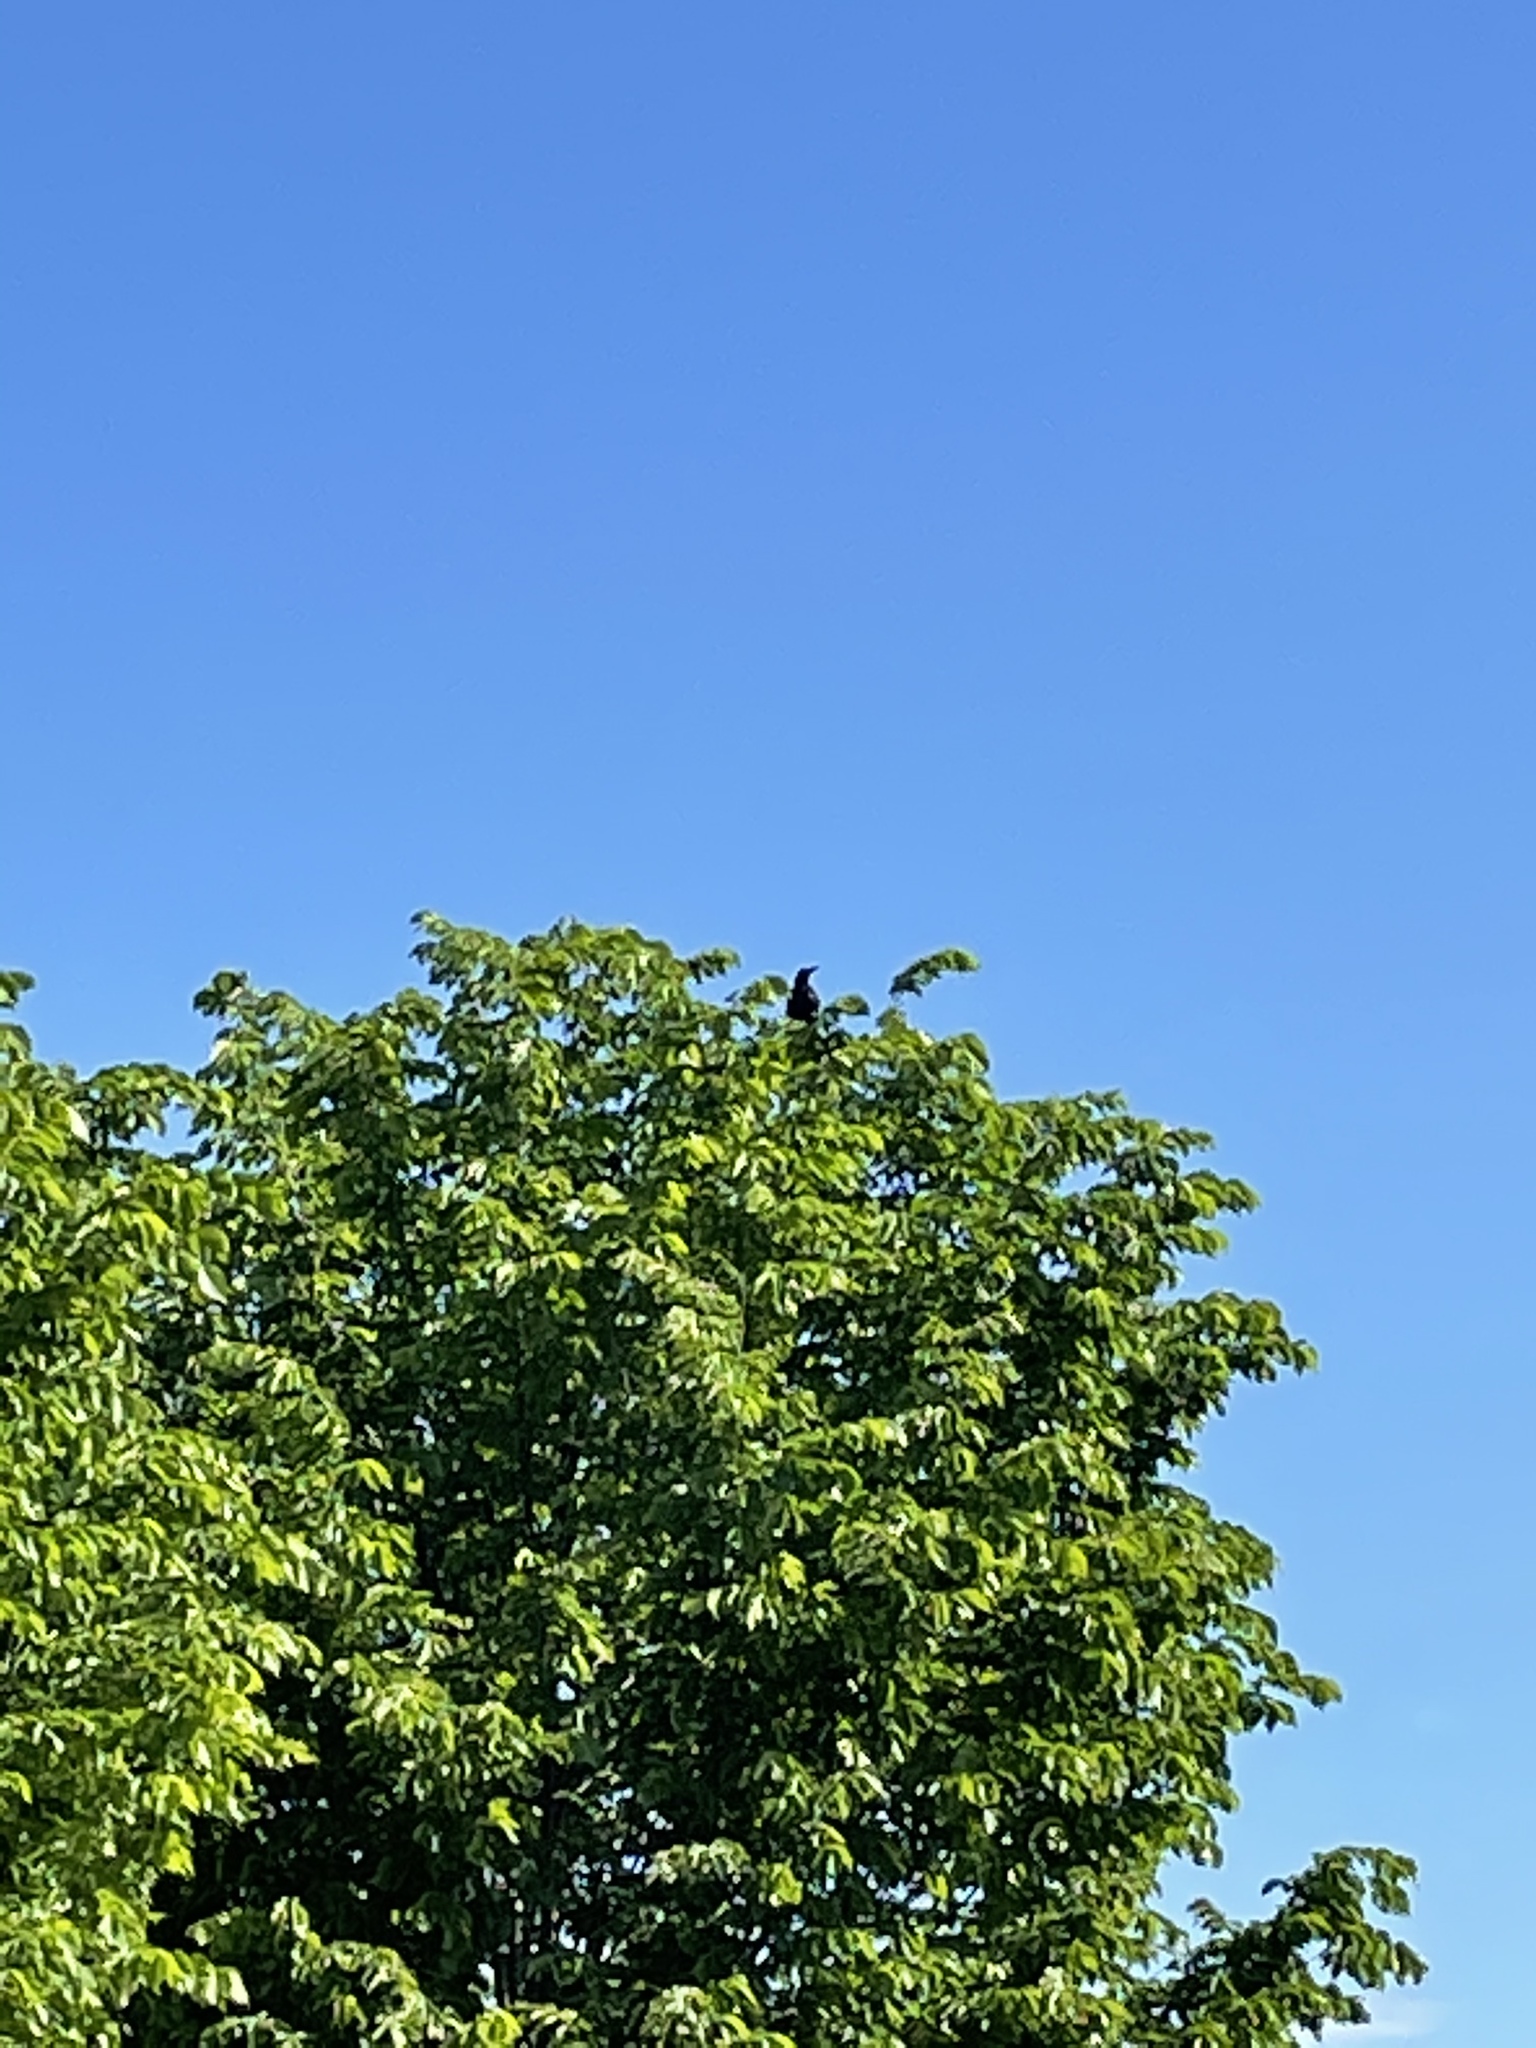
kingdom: Animalia
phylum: Chordata
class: Aves
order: Passeriformes
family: Icteridae
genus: Quiscalus
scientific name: Quiscalus mexicanus
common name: Great-tailed grackle
